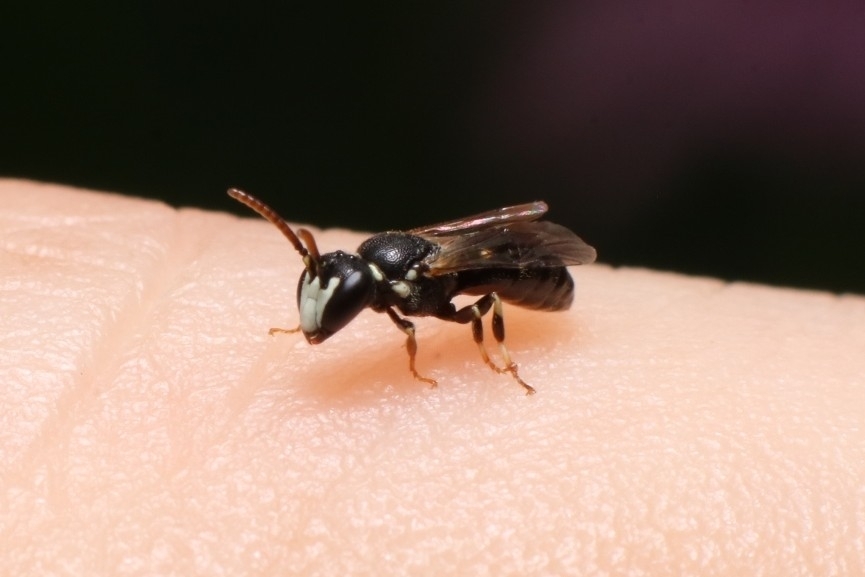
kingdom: Animalia
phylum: Arthropoda
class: Insecta
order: Hymenoptera
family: Colletidae
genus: Hylaeus
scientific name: Hylaeus leptocephalus
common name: Slender-faced masked bee
